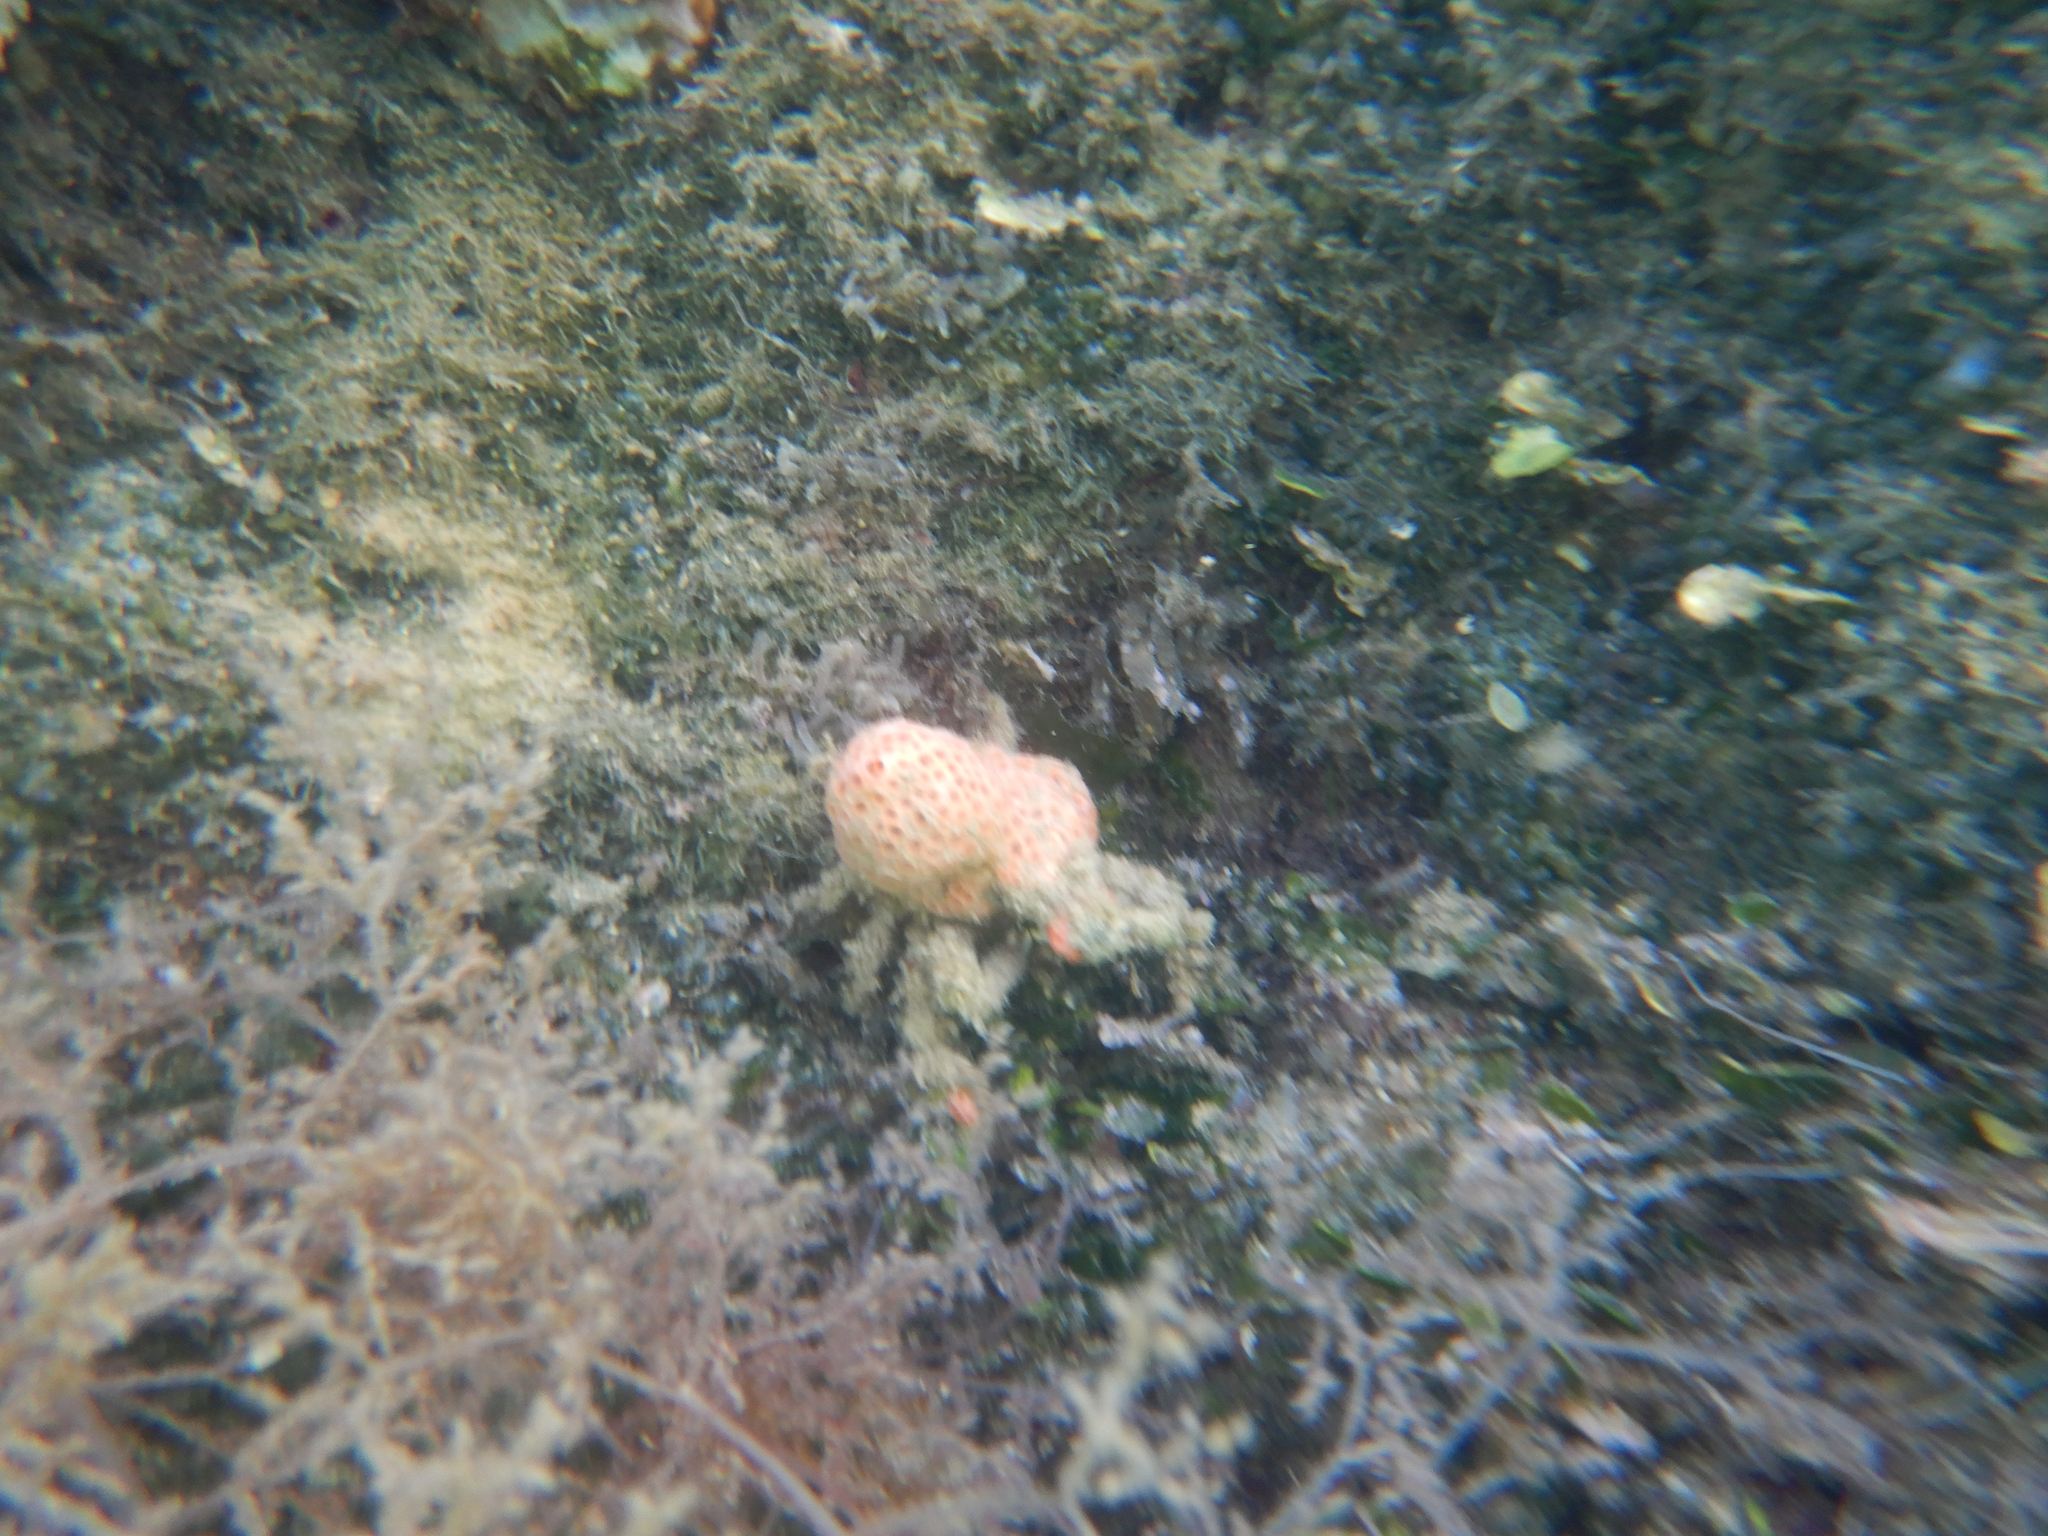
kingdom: Animalia
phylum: Porifera
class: Demospongiae
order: Poecilosclerida
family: Hymedesmiidae
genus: Hemimycale
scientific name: Hemimycale columella
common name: Crater sponge
